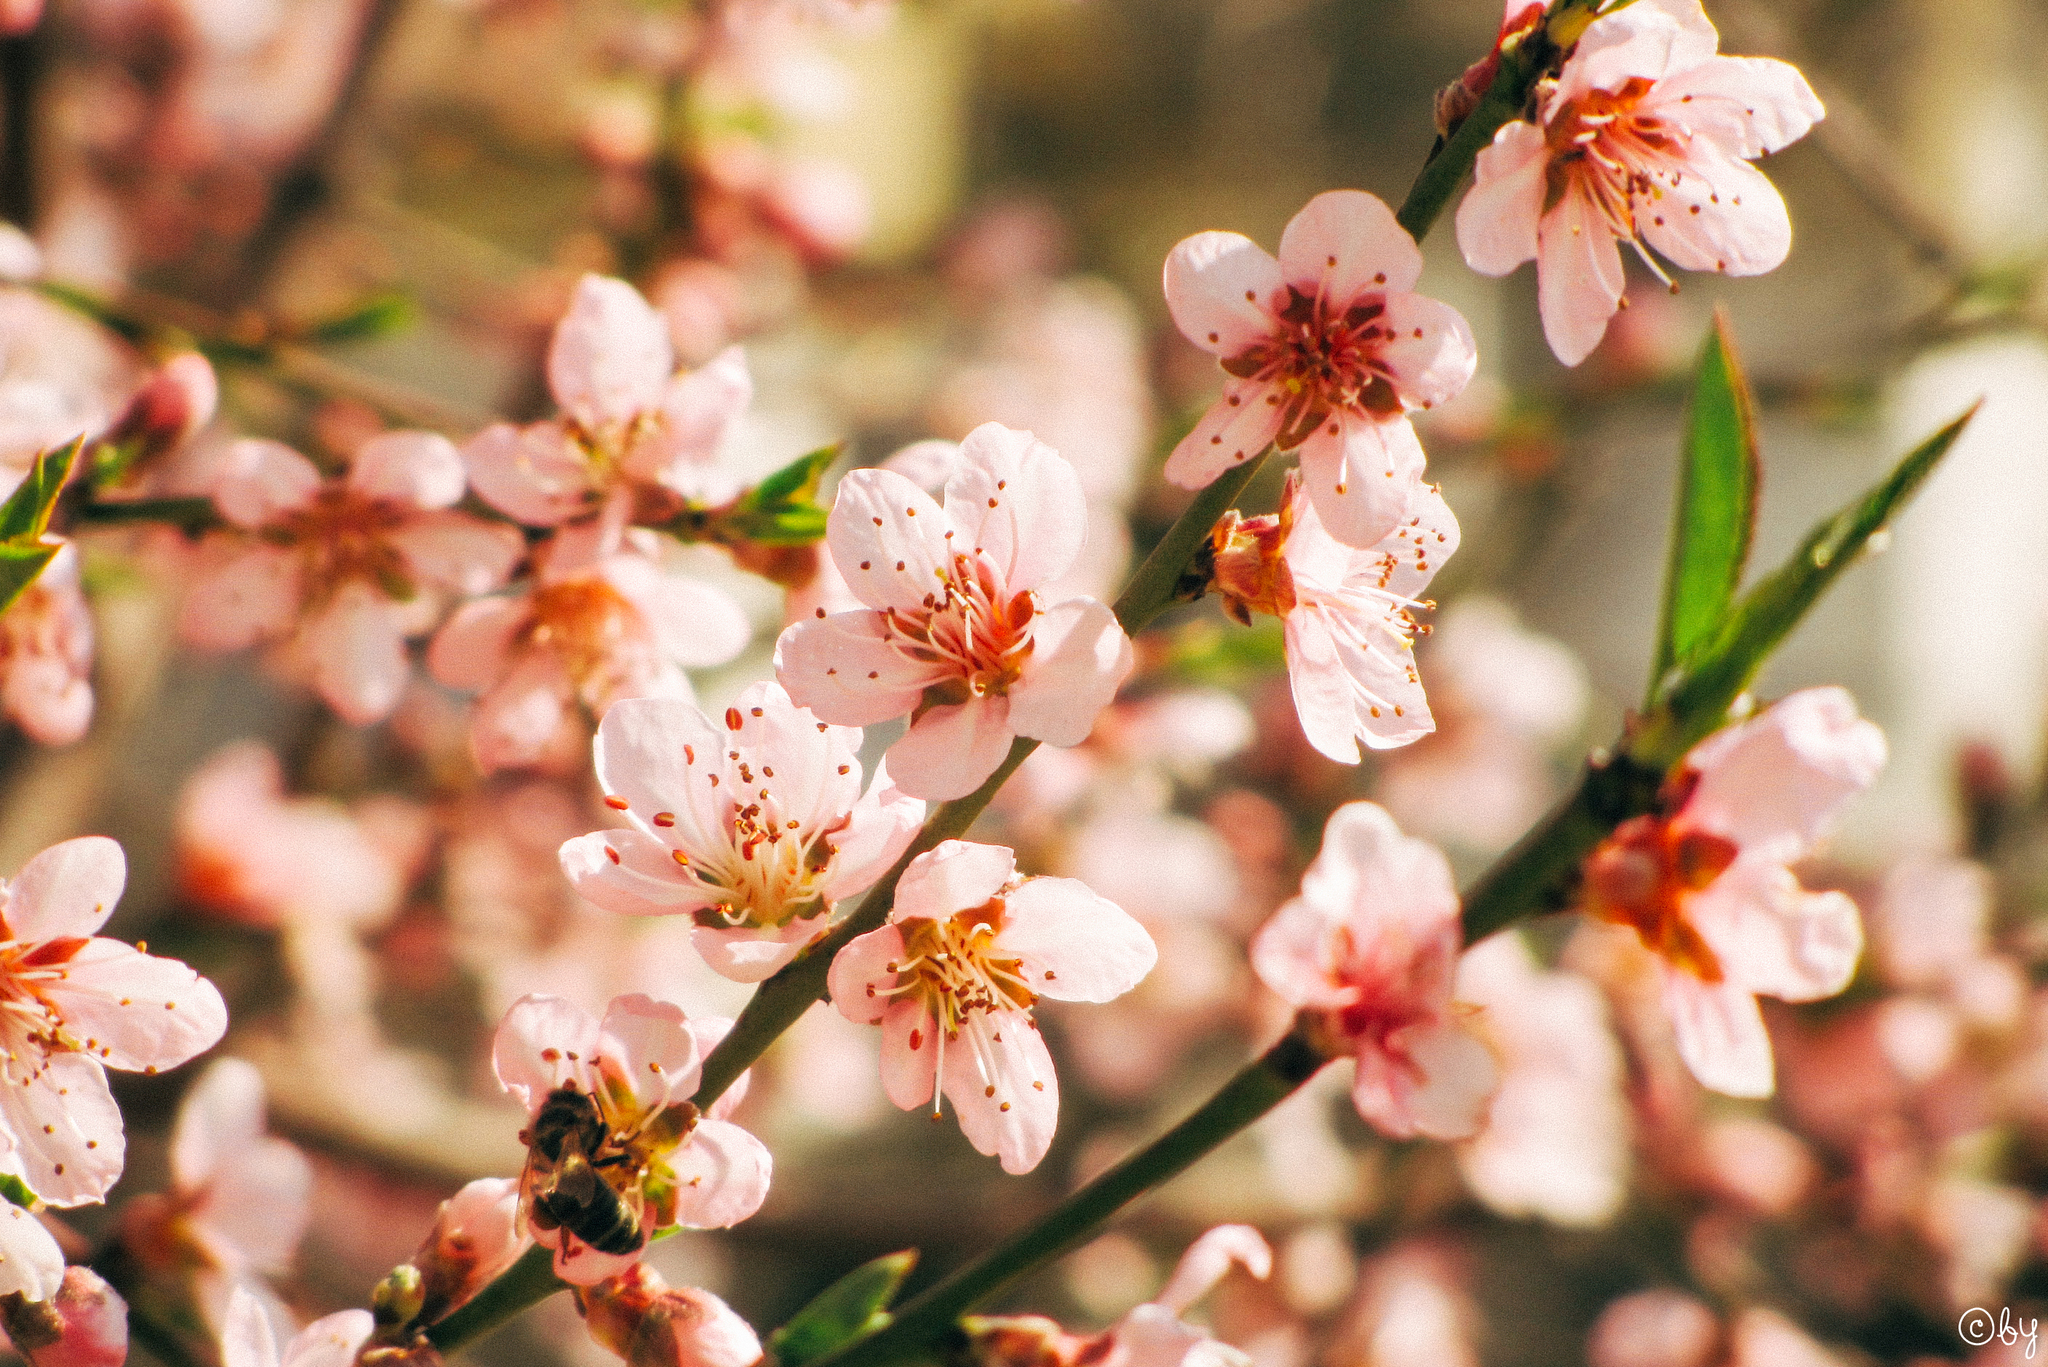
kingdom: Plantae
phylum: Tracheophyta
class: Magnoliopsida
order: Rosales
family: Rosaceae
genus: Prunus
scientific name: Prunus amygdalus
